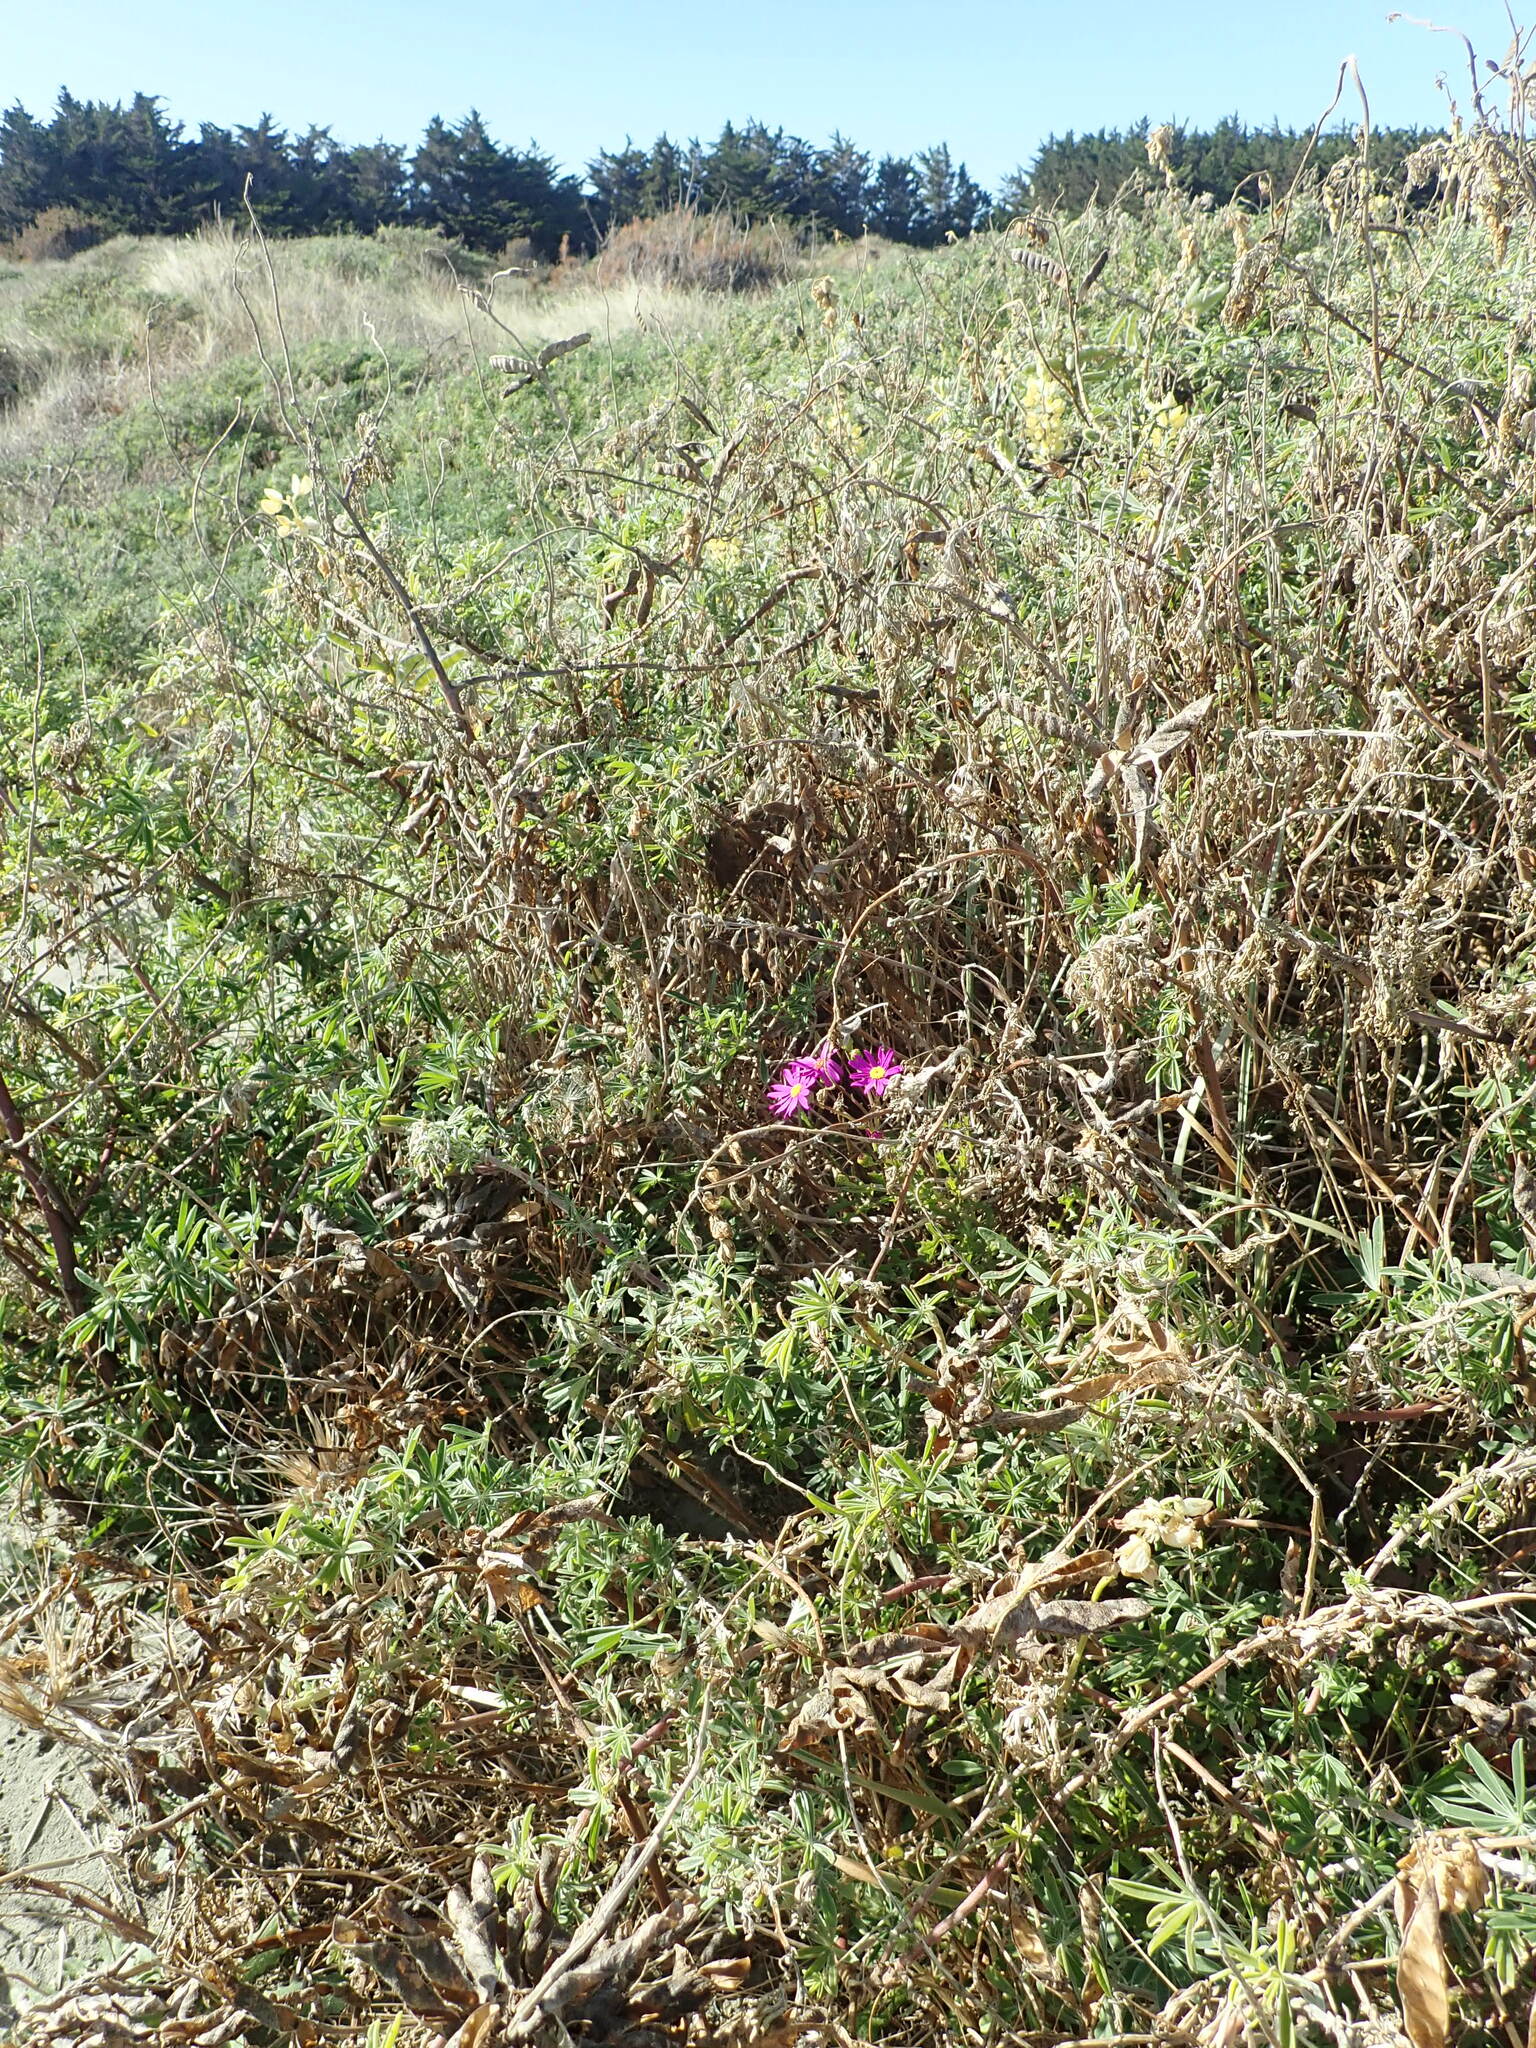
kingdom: Plantae
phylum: Tracheophyta
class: Magnoliopsida
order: Asterales
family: Asteraceae
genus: Senecio
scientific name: Senecio elegans
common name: Purple groundsel
